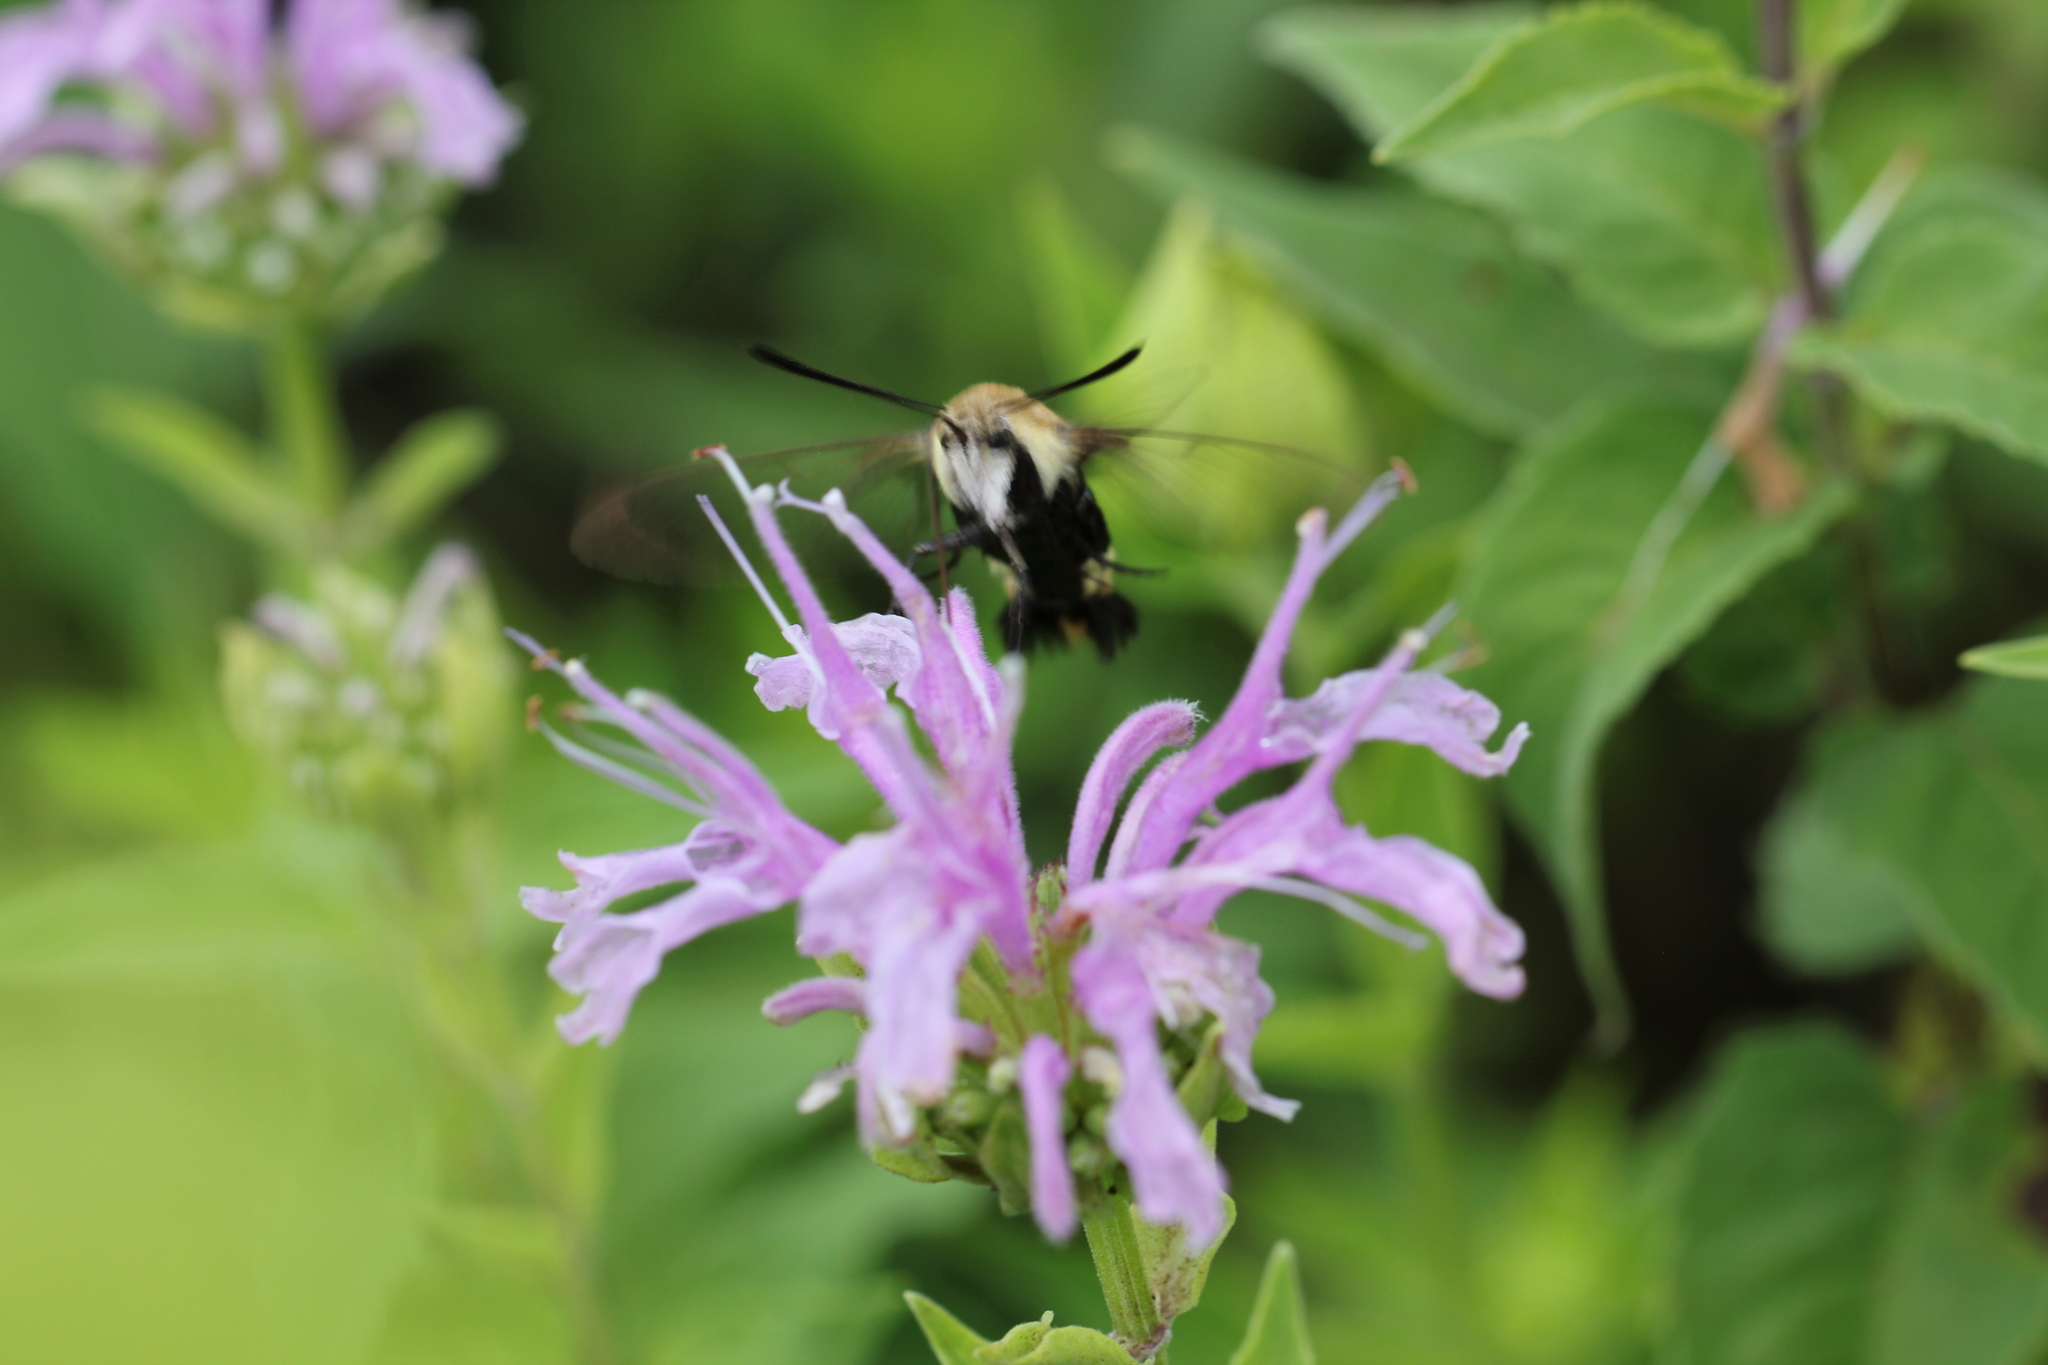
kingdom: Animalia
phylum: Arthropoda
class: Insecta
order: Lepidoptera
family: Sphingidae
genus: Hemaris
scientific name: Hemaris diffinis
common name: Bumblebee moth
